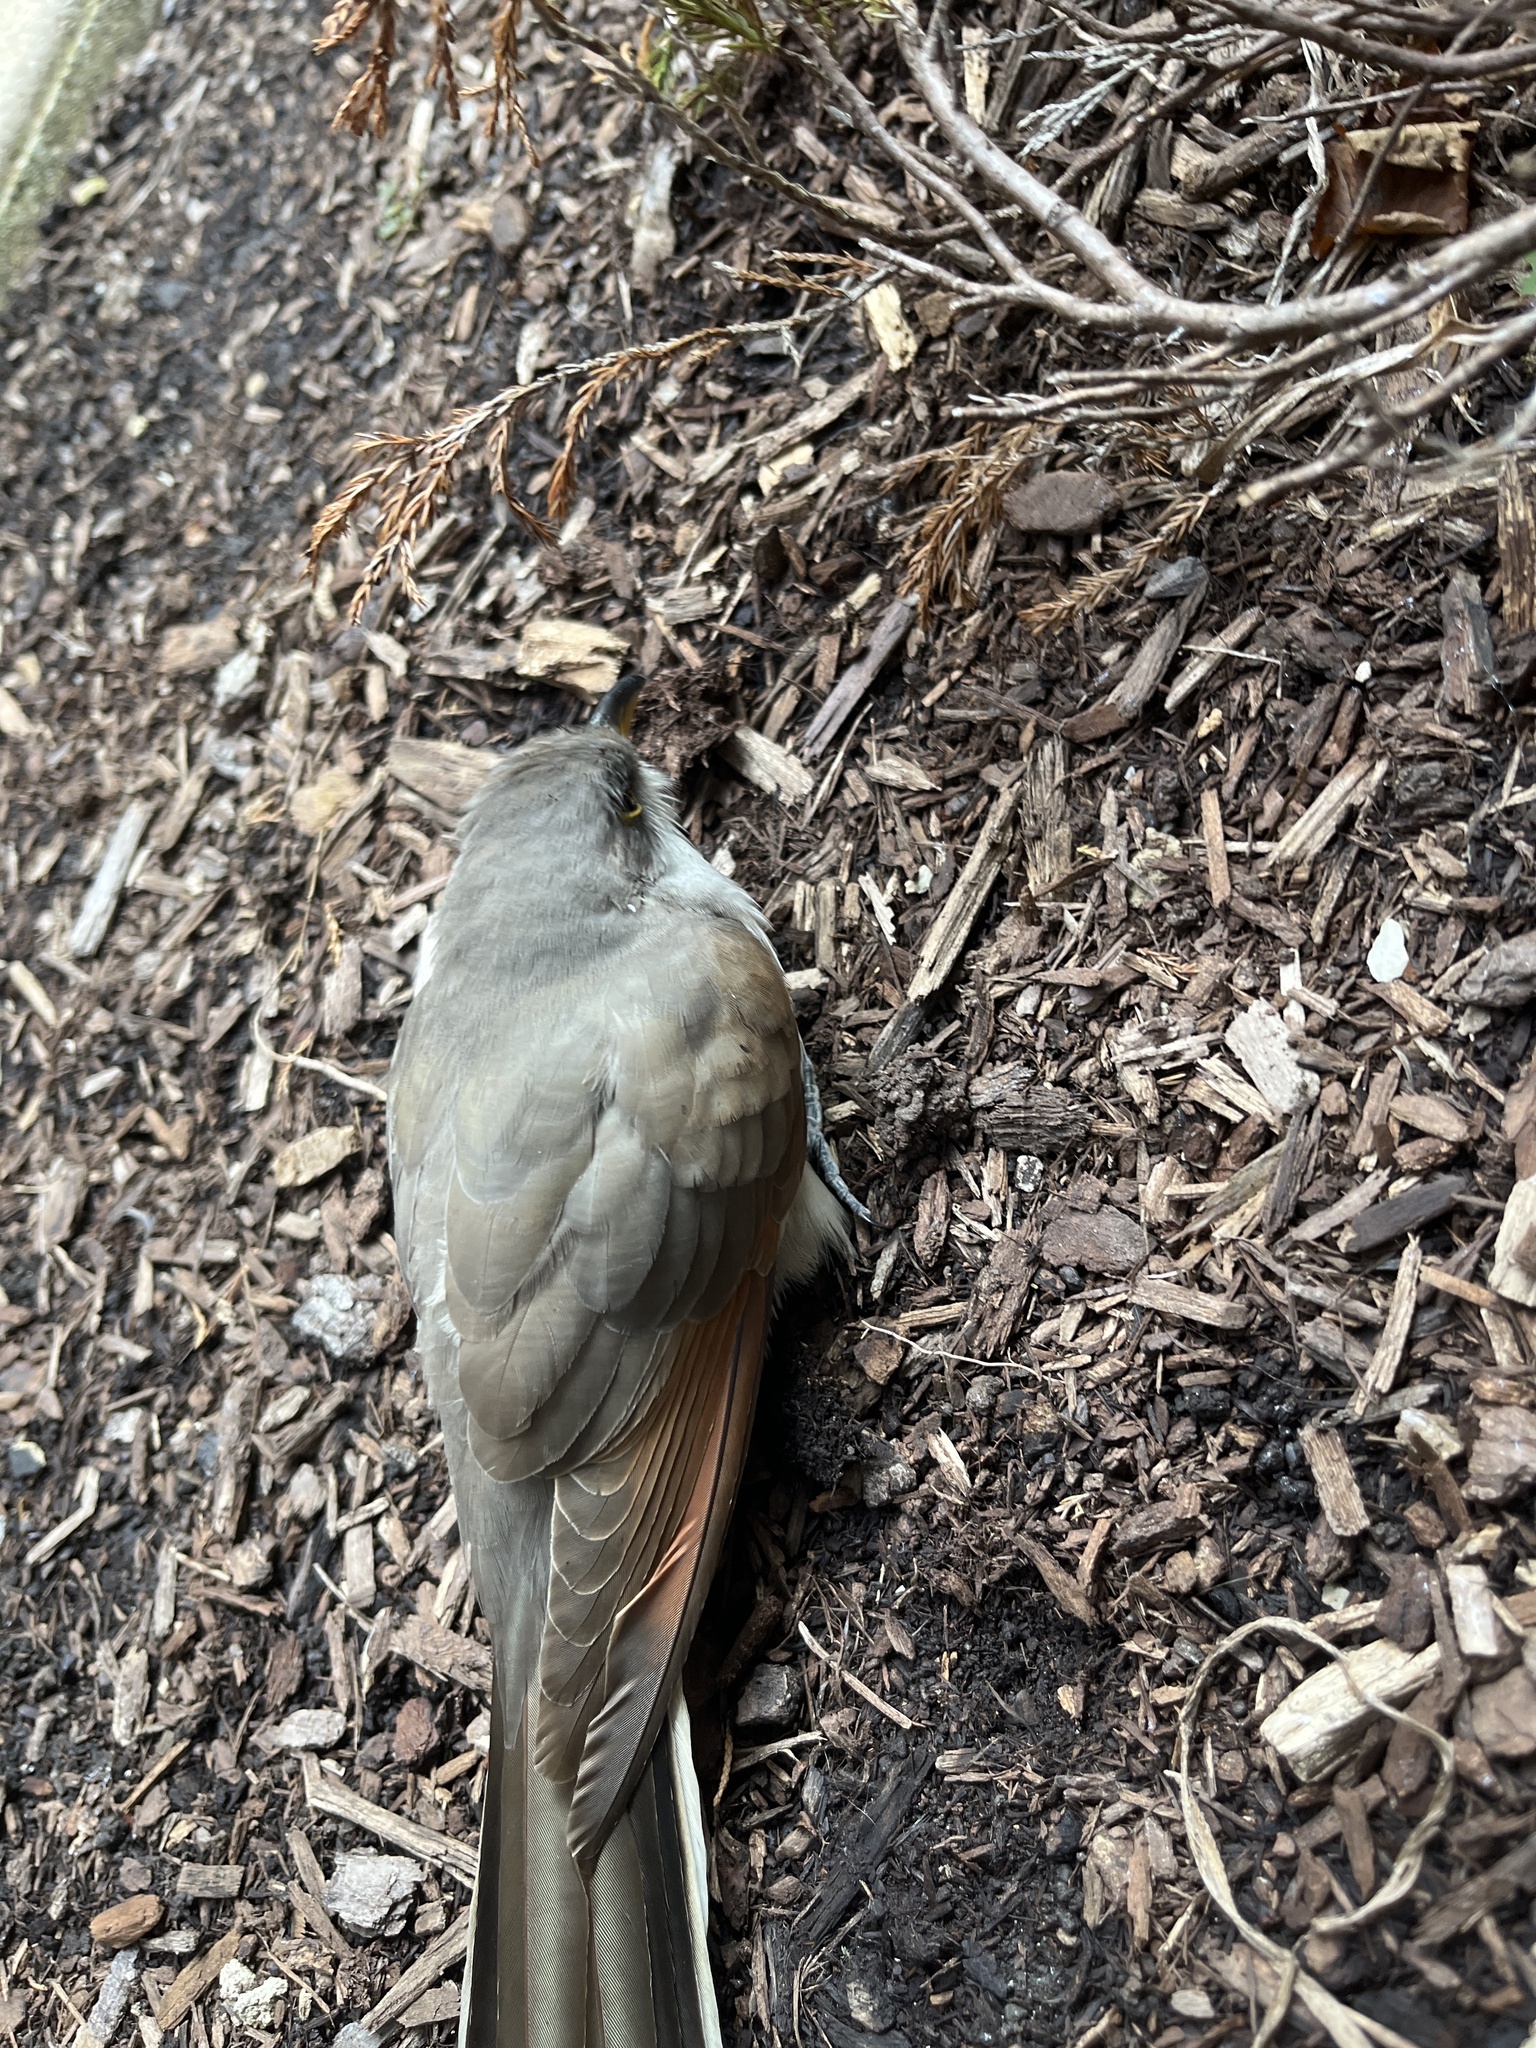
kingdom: Animalia
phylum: Chordata
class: Aves
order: Cuculiformes
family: Cuculidae
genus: Coccyzus
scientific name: Coccyzus americanus
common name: Yellow-billed cuckoo
